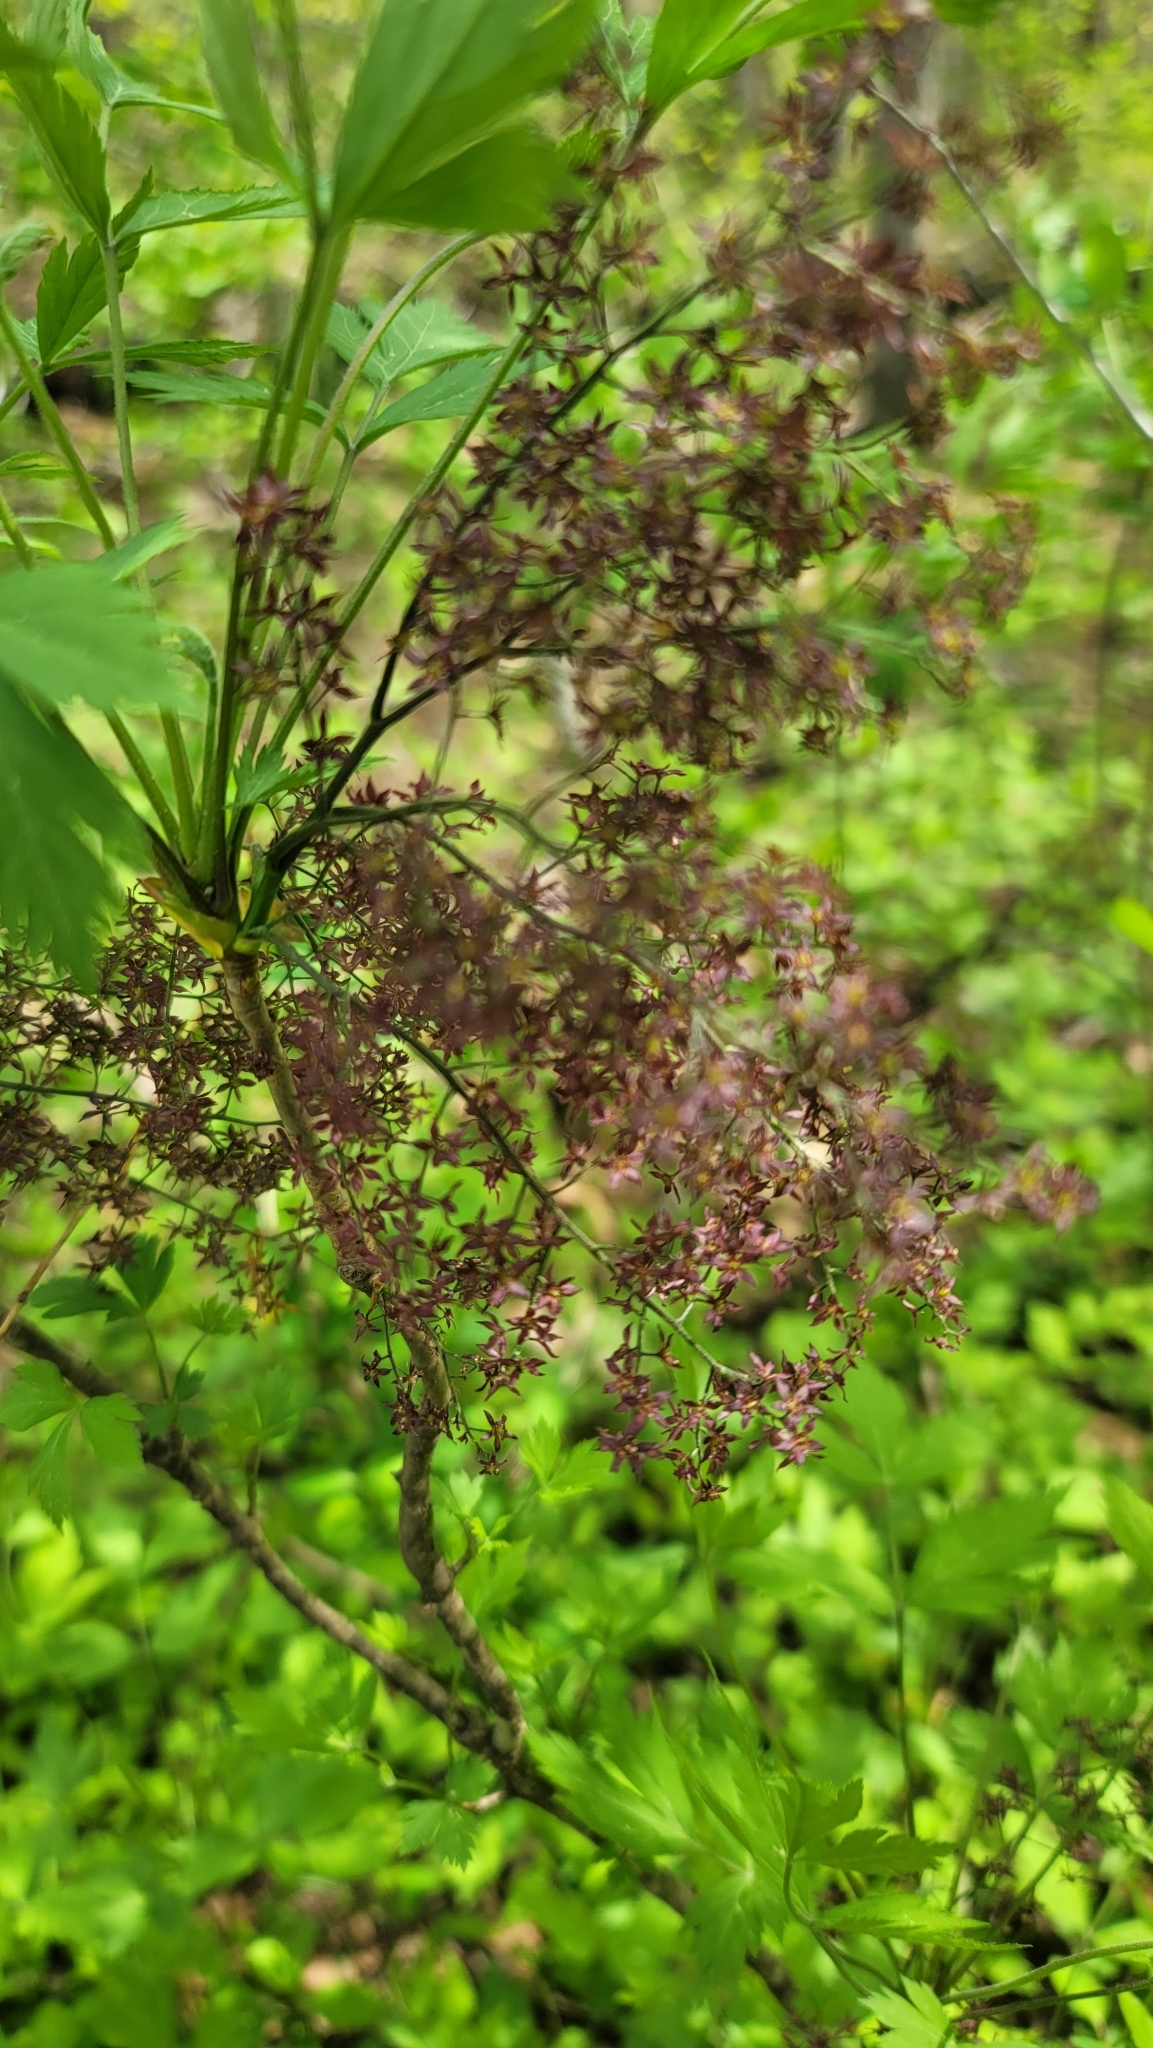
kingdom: Plantae
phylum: Tracheophyta
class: Magnoliopsida
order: Ranunculales
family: Ranunculaceae
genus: Xanthorhiza
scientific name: Xanthorhiza simplicissima
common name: Yellowroot
